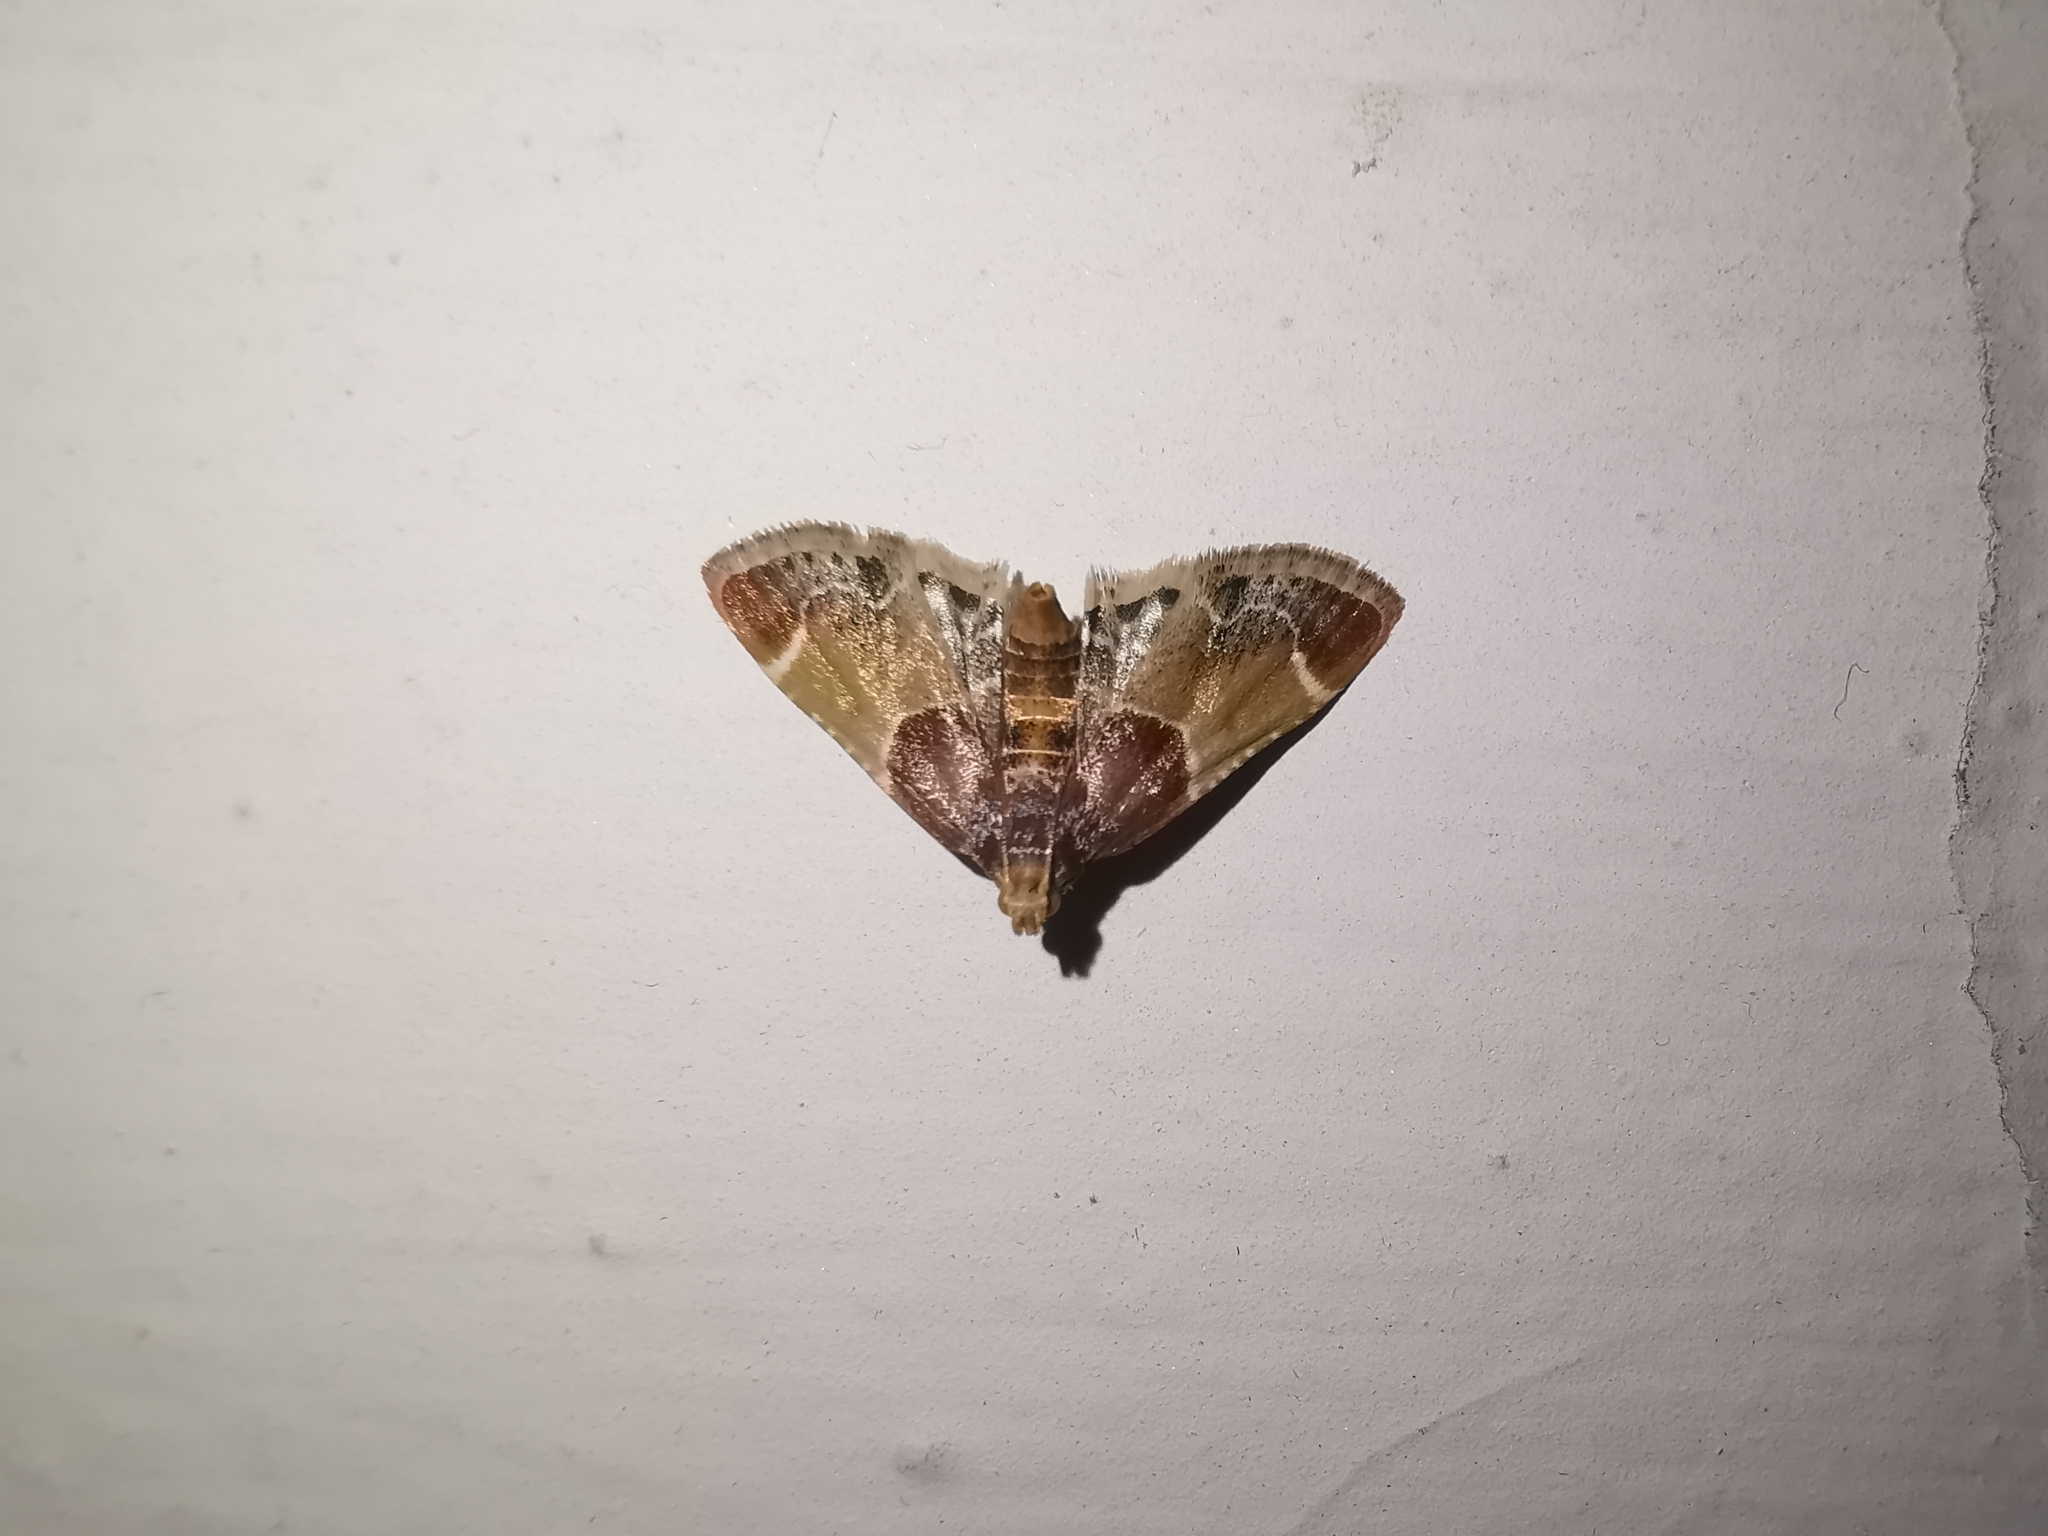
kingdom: Animalia
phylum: Arthropoda
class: Insecta
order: Lepidoptera
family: Pyralidae
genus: Pyralis
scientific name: Pyralis farinalis
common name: Meal moth
